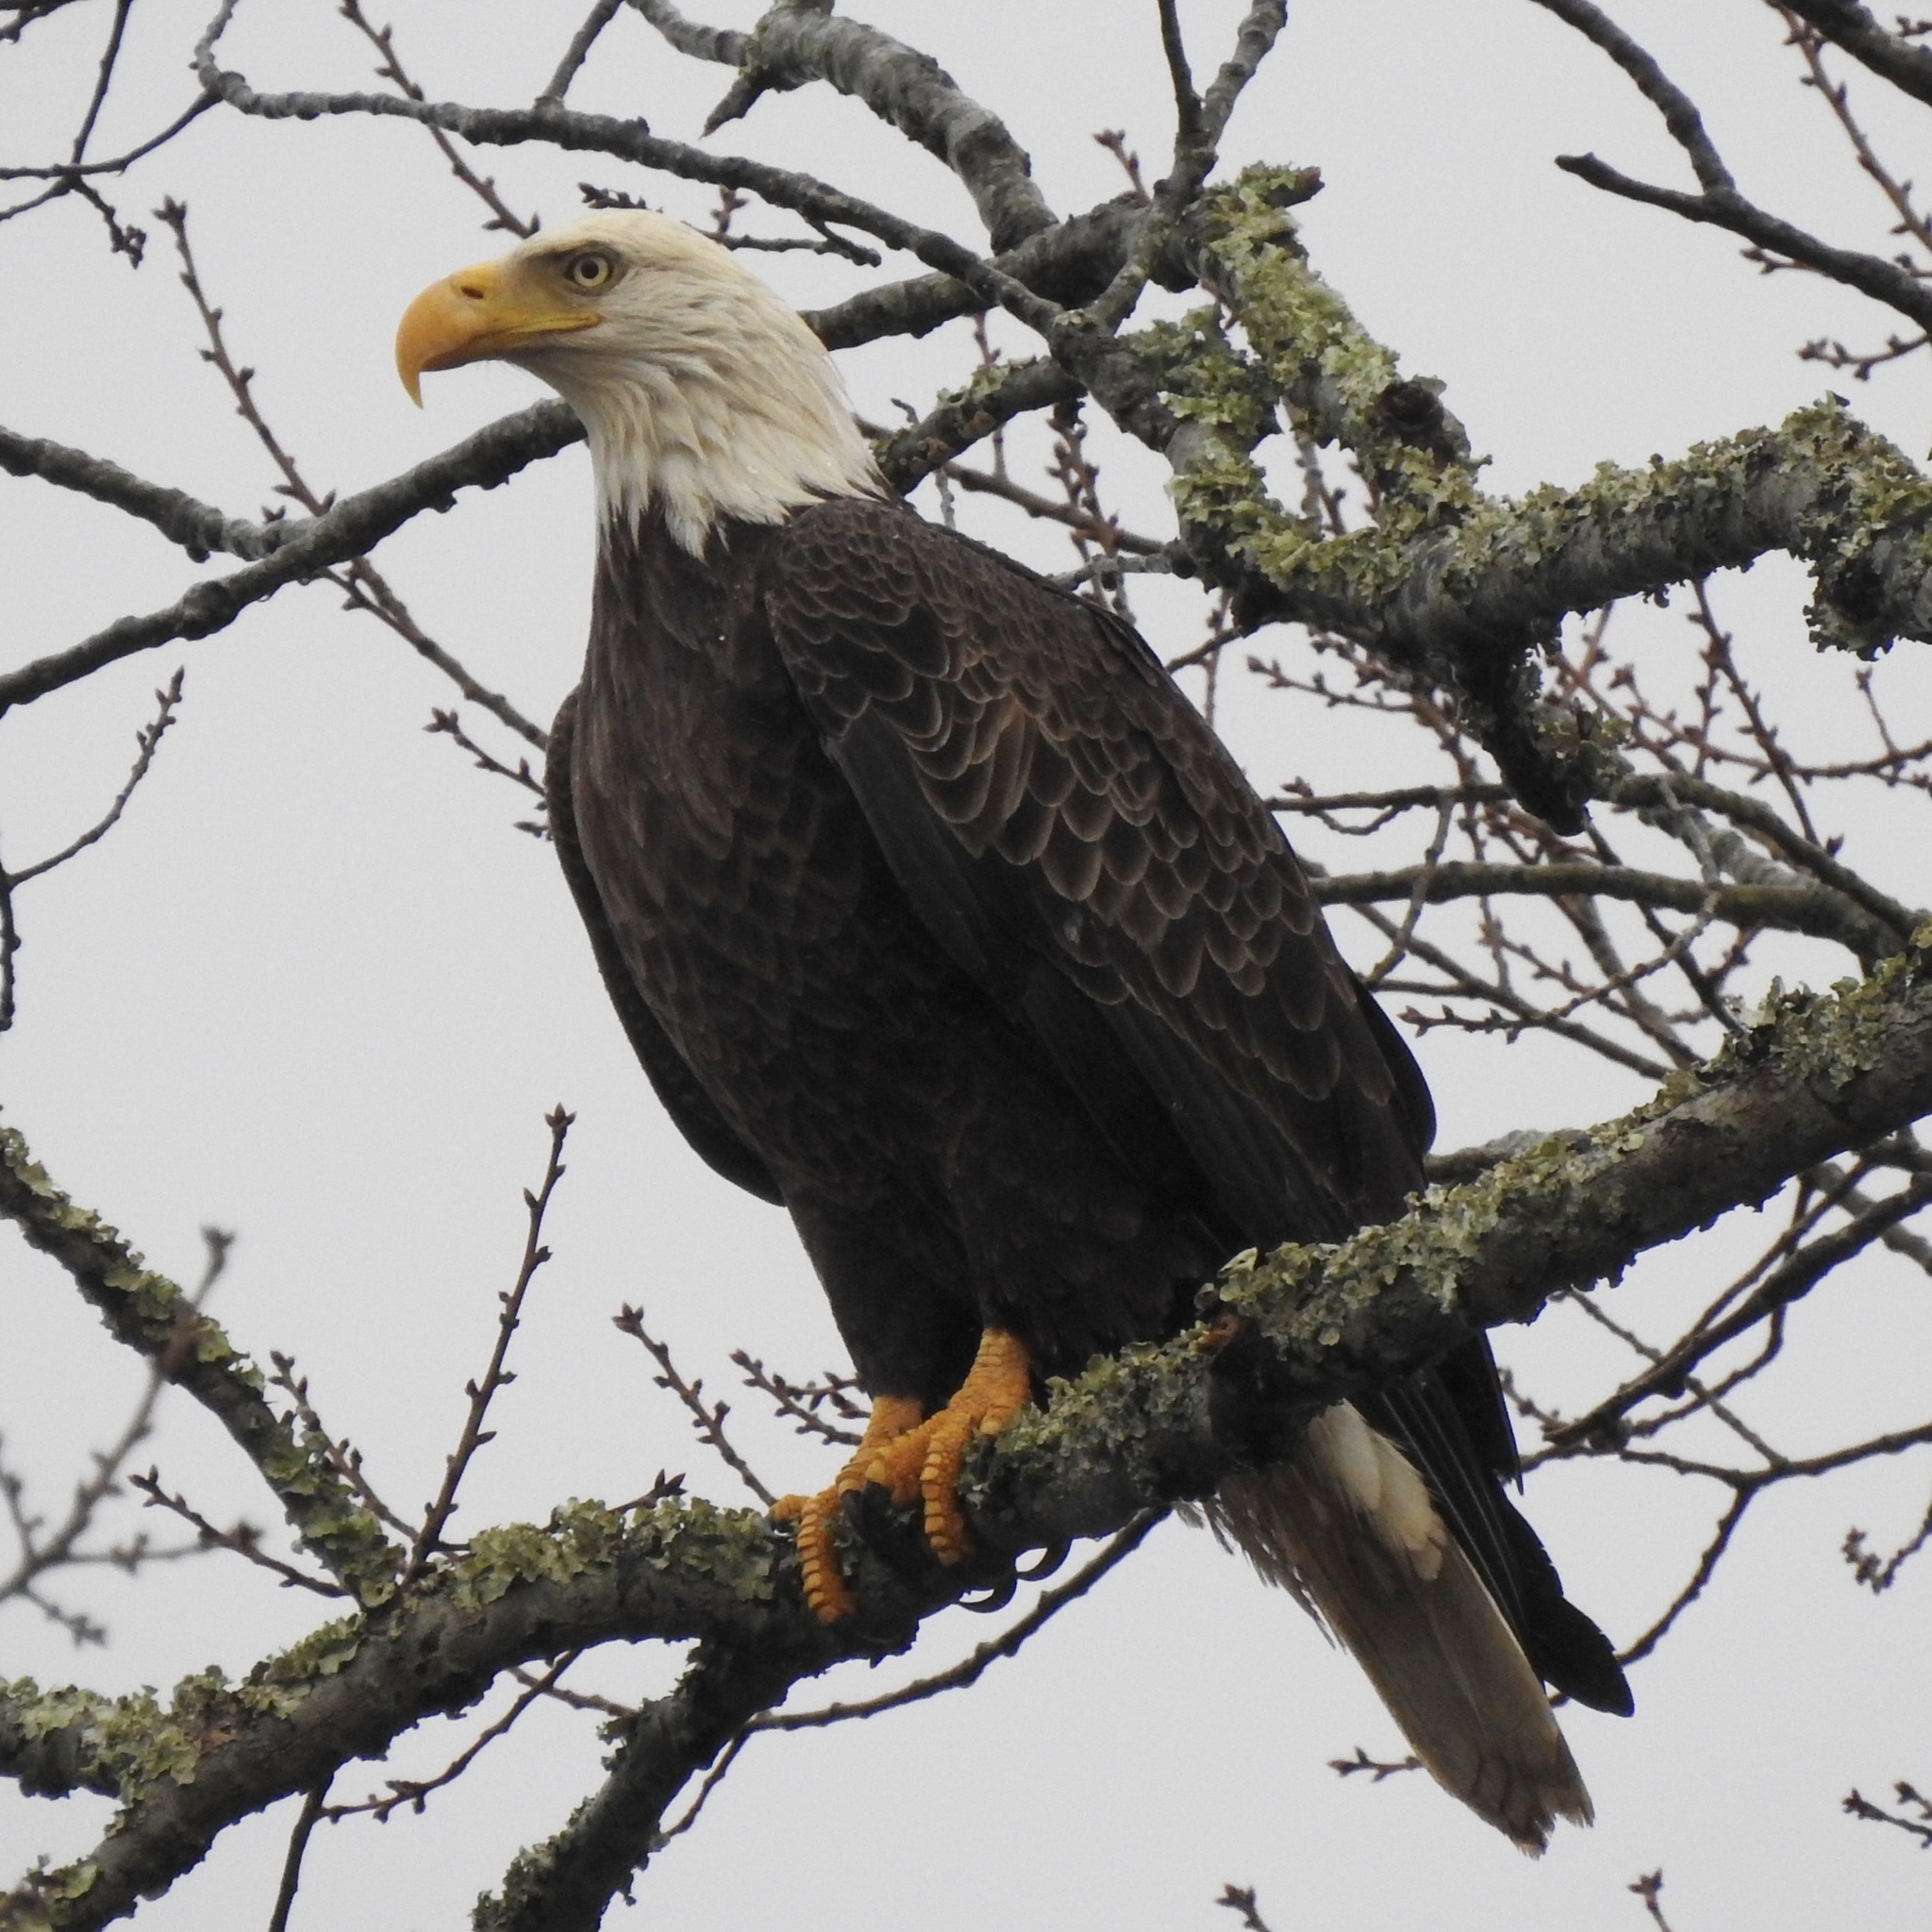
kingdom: Animalia
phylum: Chordata
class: Aves
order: Accipitriformes
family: Accipitridae
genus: Haliaeetus
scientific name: Haliaeetus leucocephalus
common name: Bald eagle
